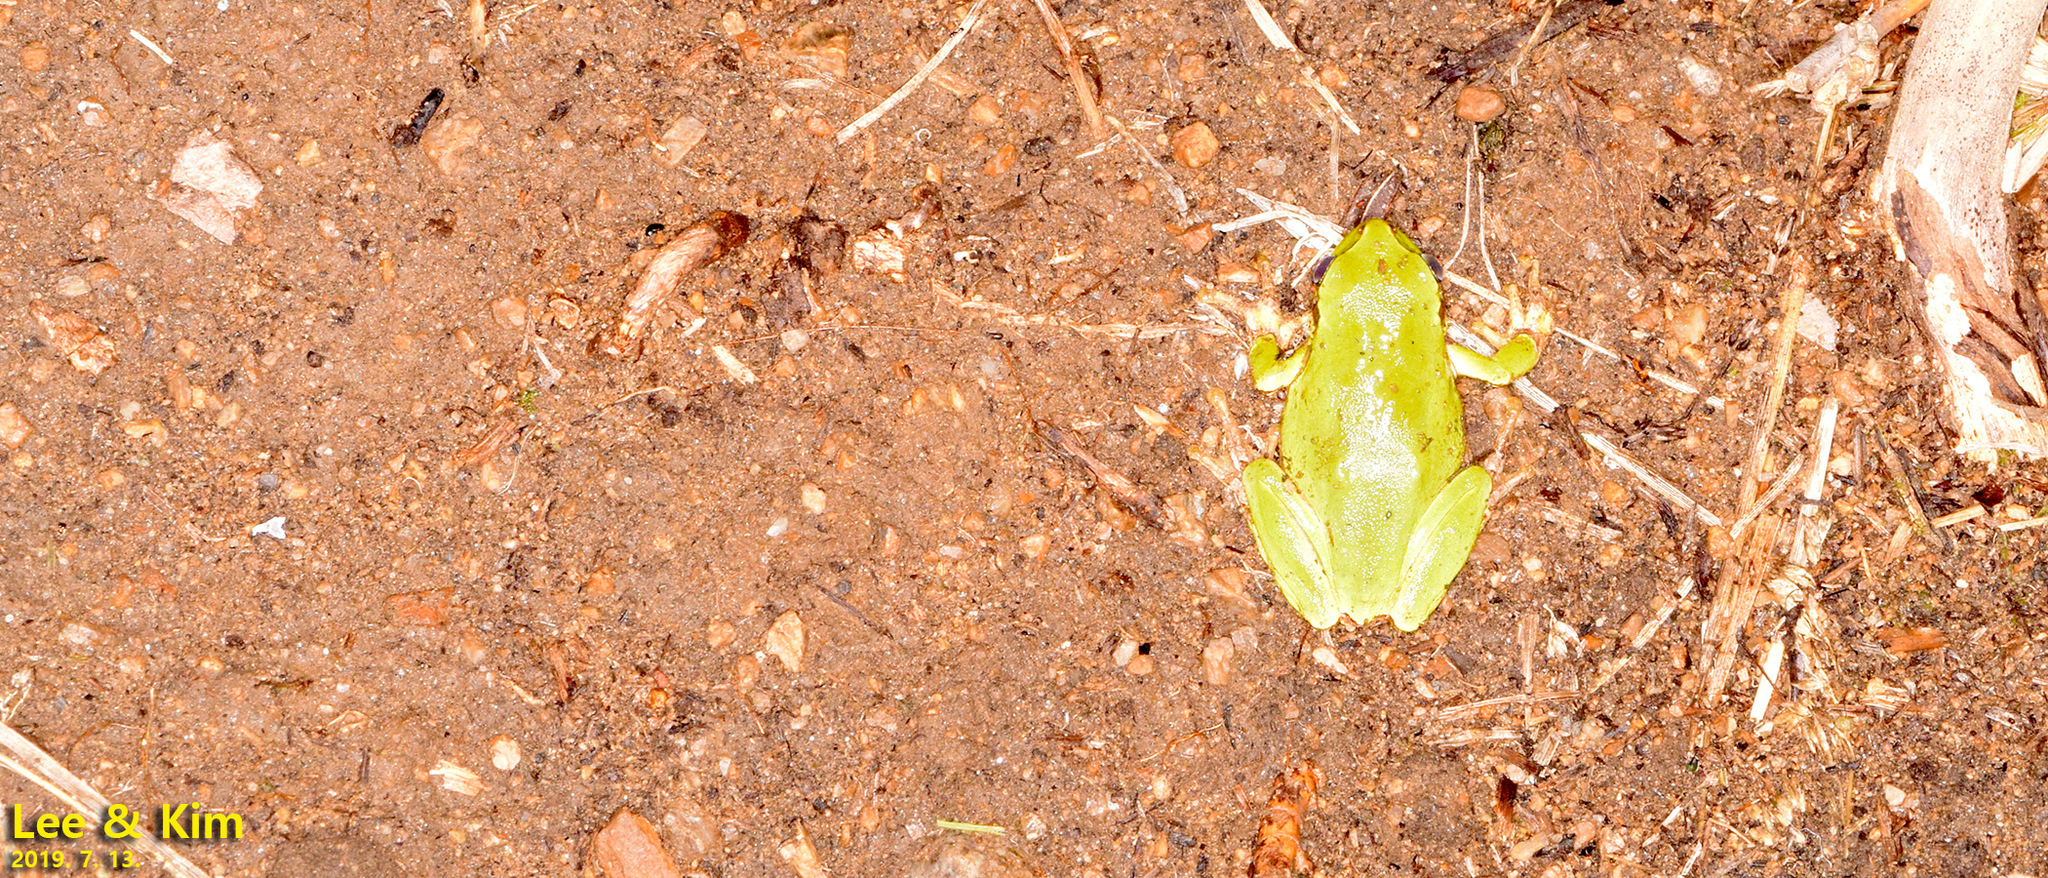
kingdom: Animalia
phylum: Chordata
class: Amphibia
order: Anura
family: Hylidae
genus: Dryophytes
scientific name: Dryophytes japonicus
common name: Japanese treefrog
